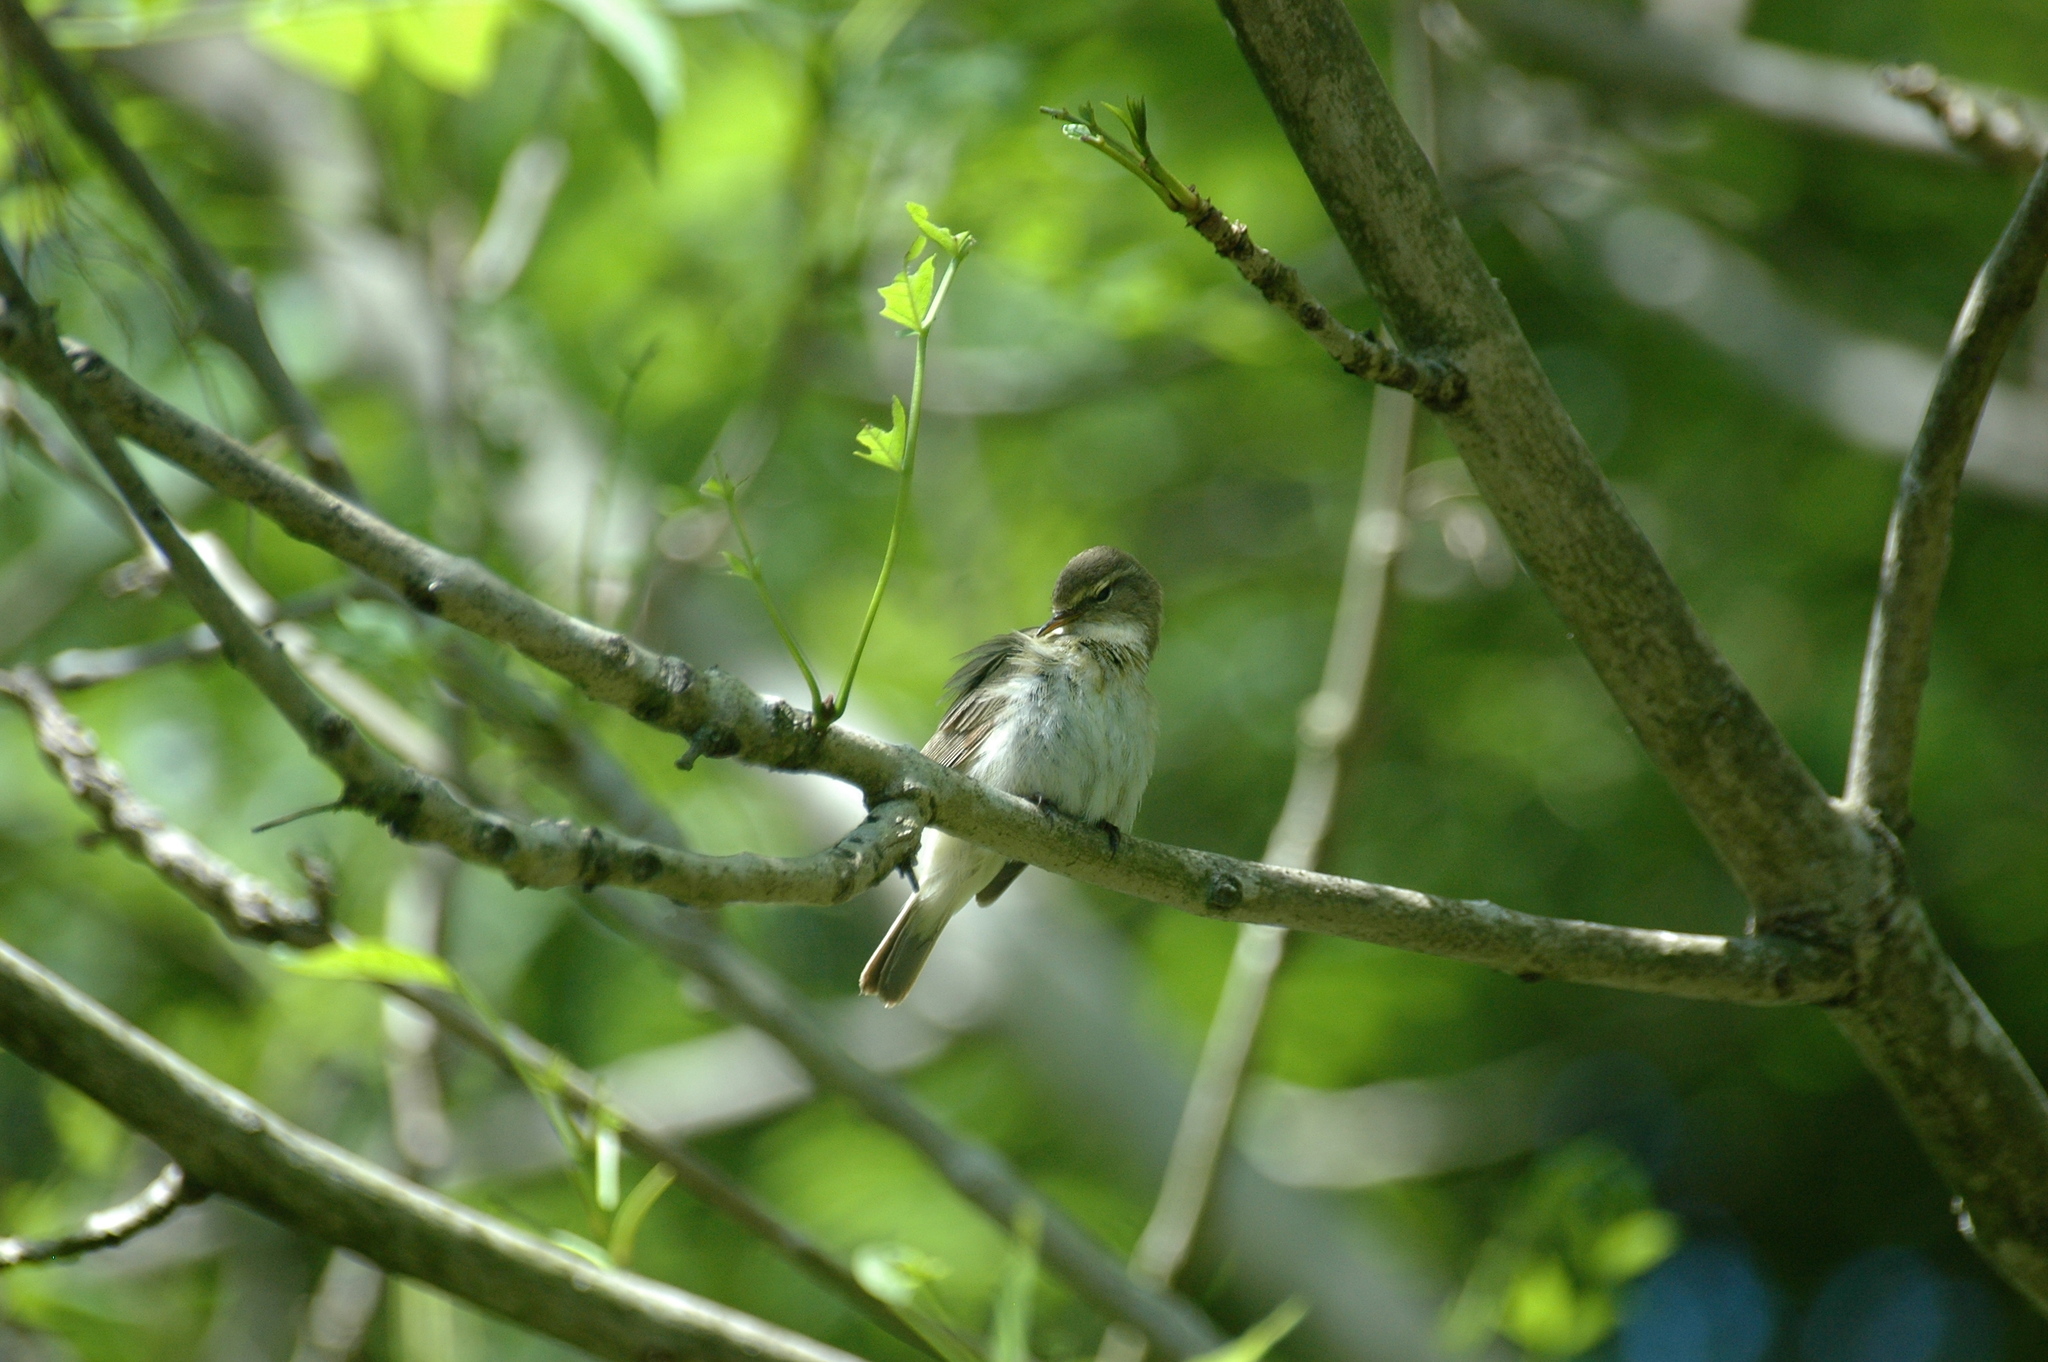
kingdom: Animalia
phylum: Chordata
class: Aves
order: Passeriformes
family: Sylviidae
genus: Sylvia
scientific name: Sylvia borin
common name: Garden warbler
